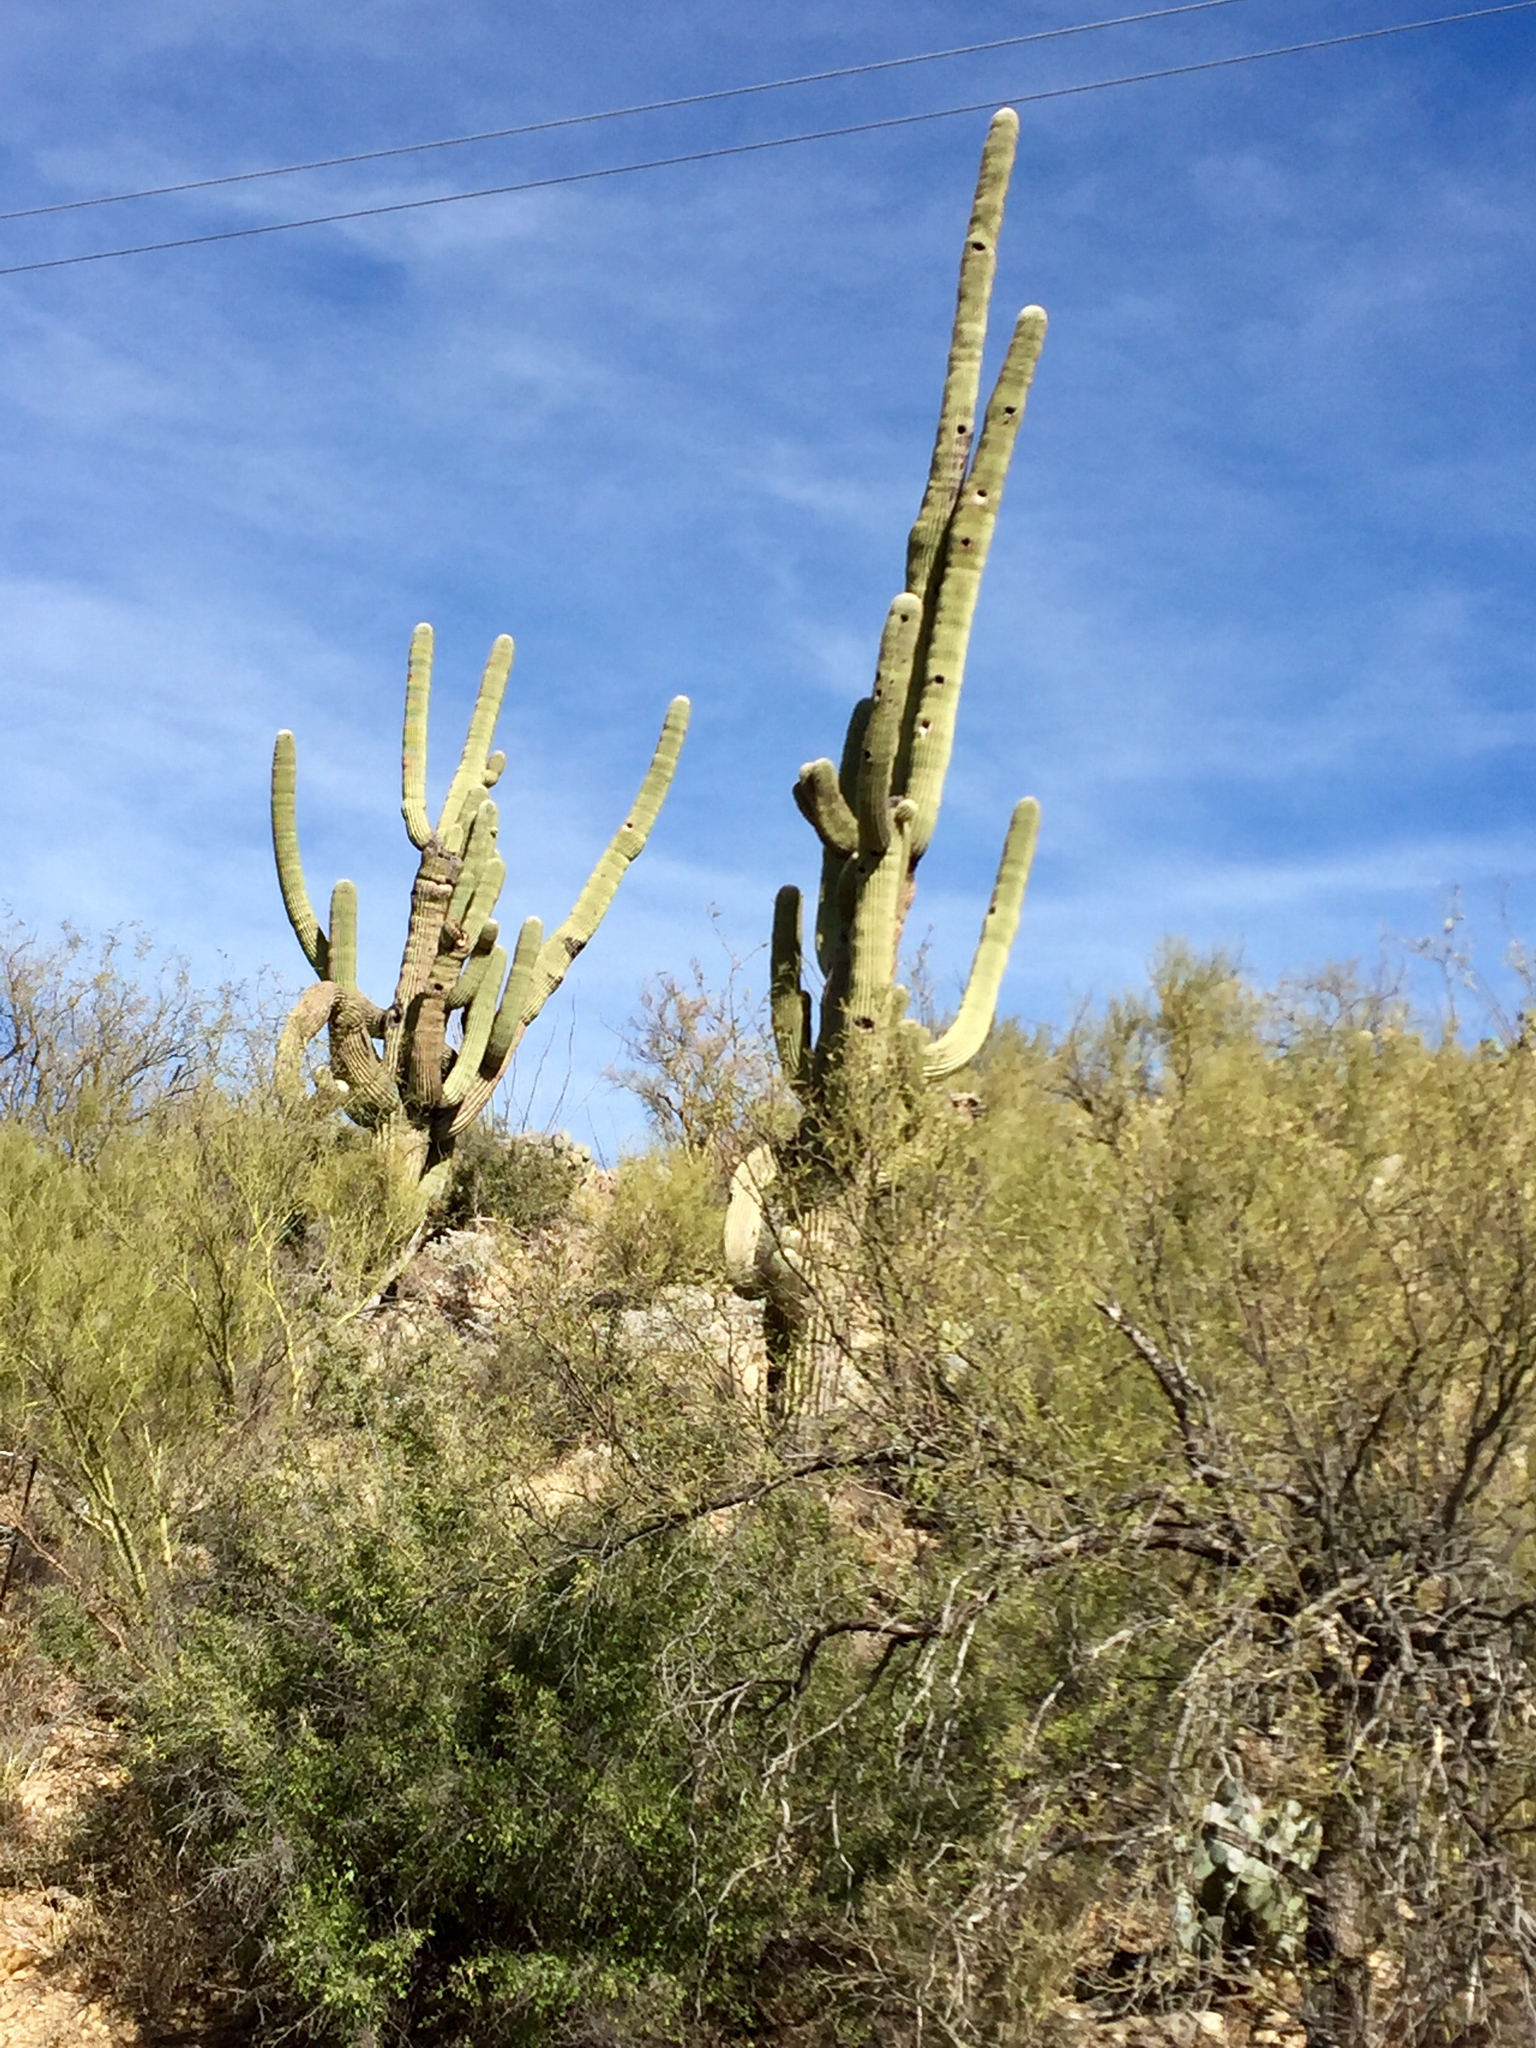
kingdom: Plantae
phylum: Tracheophyta
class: Magnoliopsida
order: Caryophyllales
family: Cactaceae
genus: Carnegiea
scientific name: Carnegiea gigantea
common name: Saguaro
